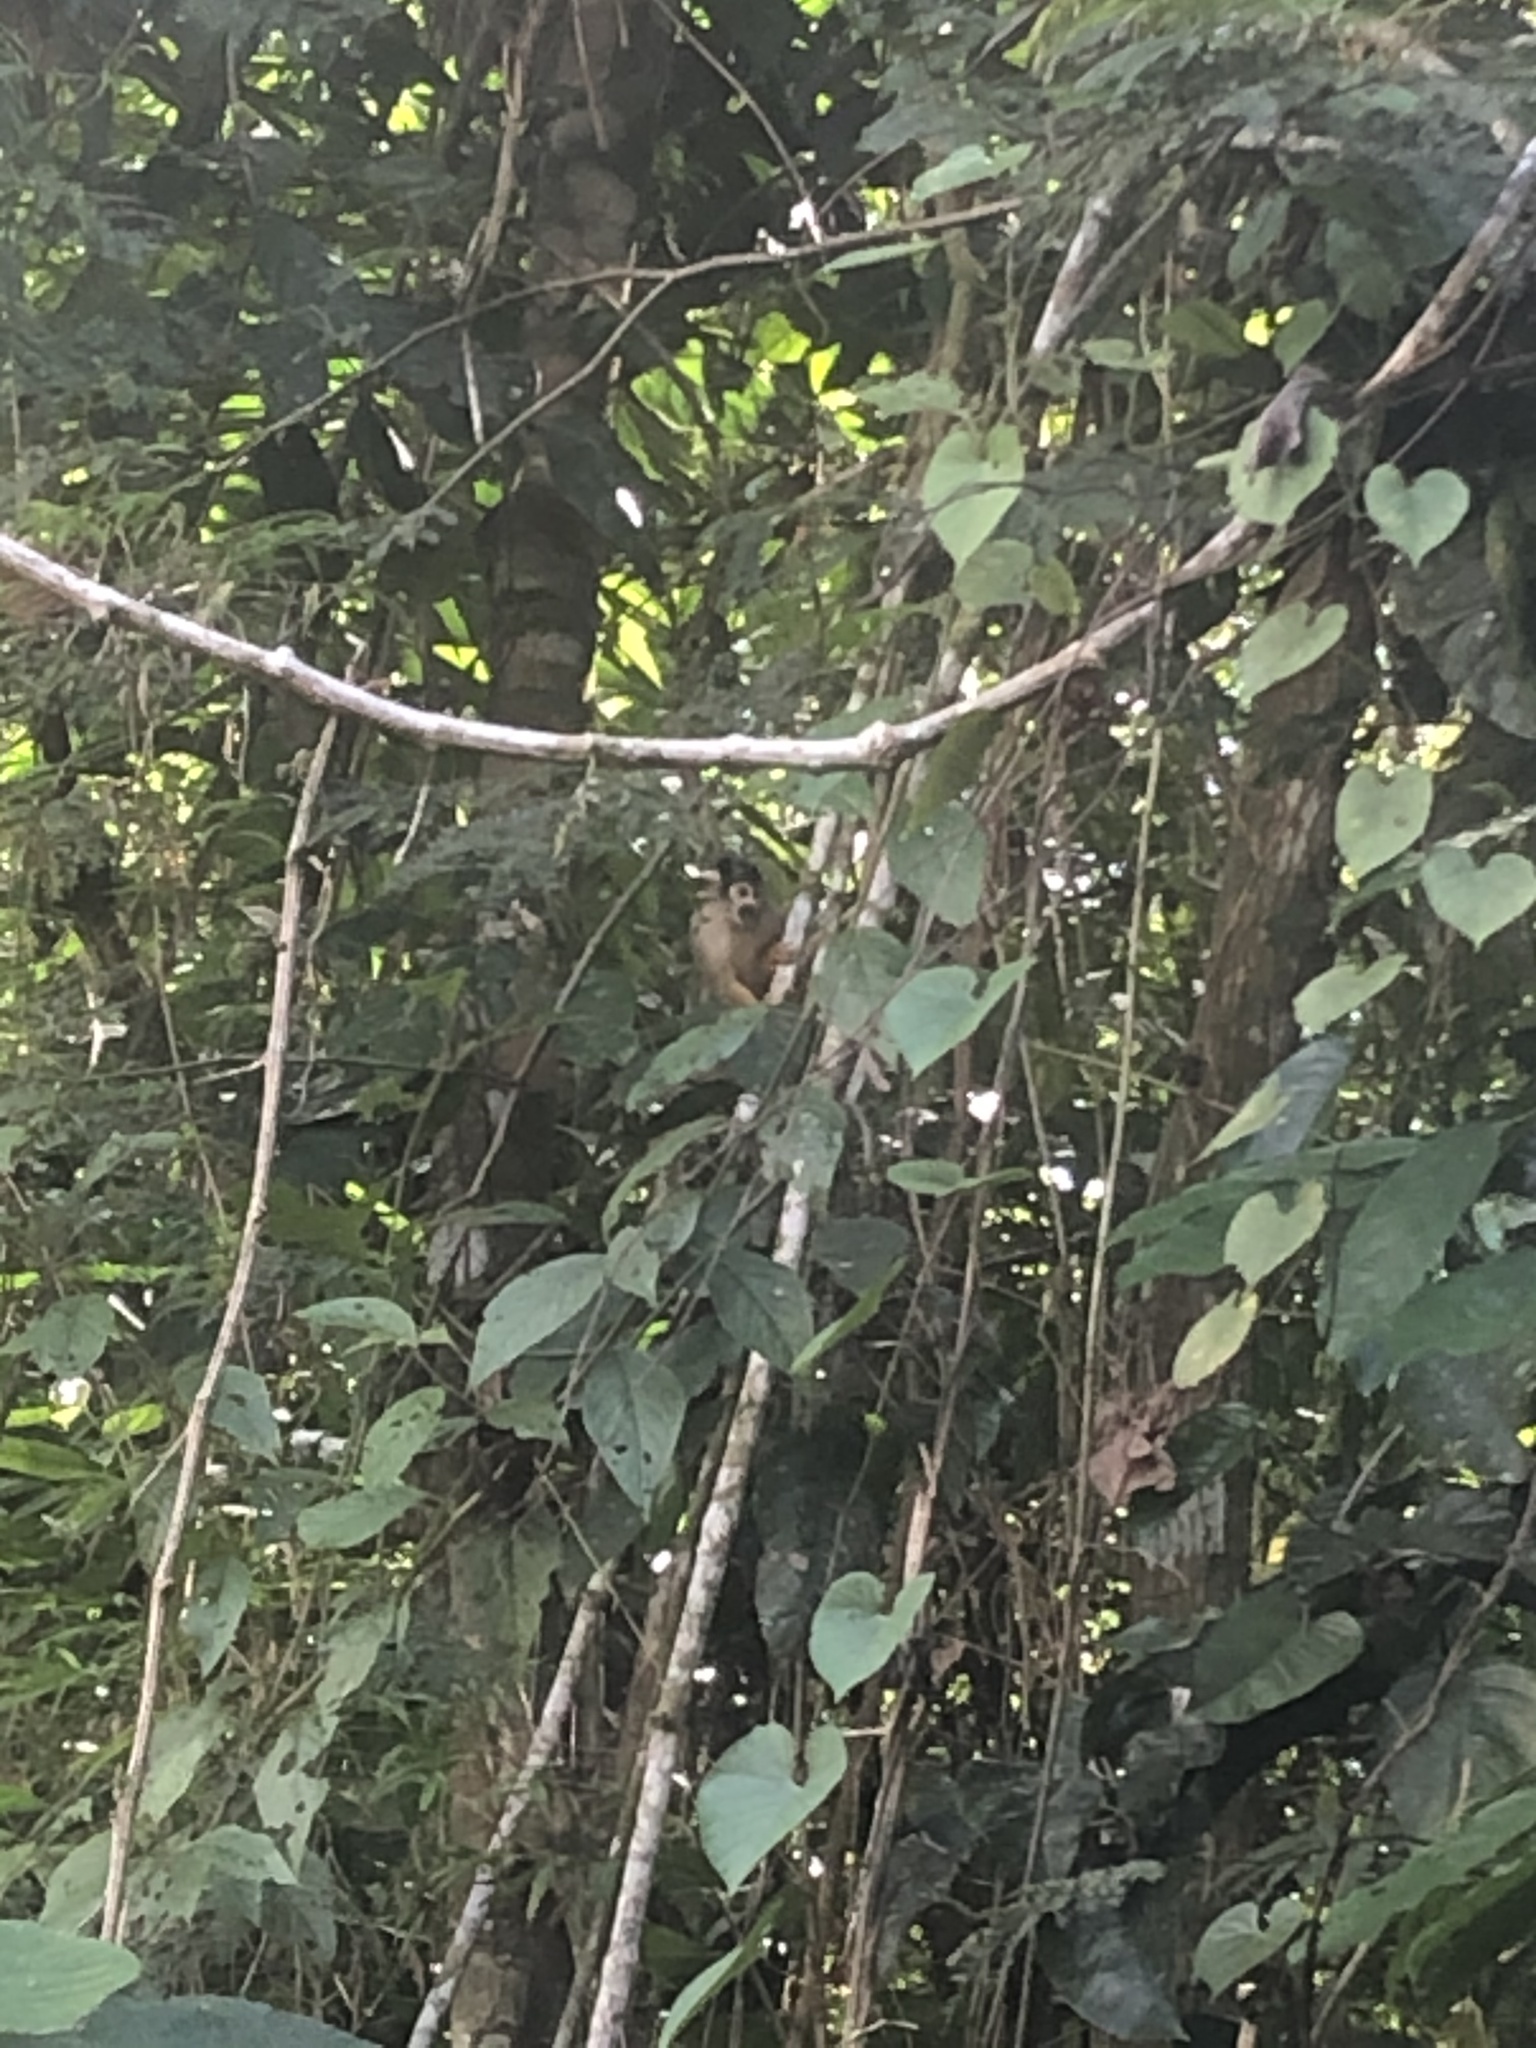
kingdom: Animalia
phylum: Chordata
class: Mammalia
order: Primates
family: Cebidae
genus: Saimiri
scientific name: Saimiri boliviensis
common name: Black-capped squirrel monkey
